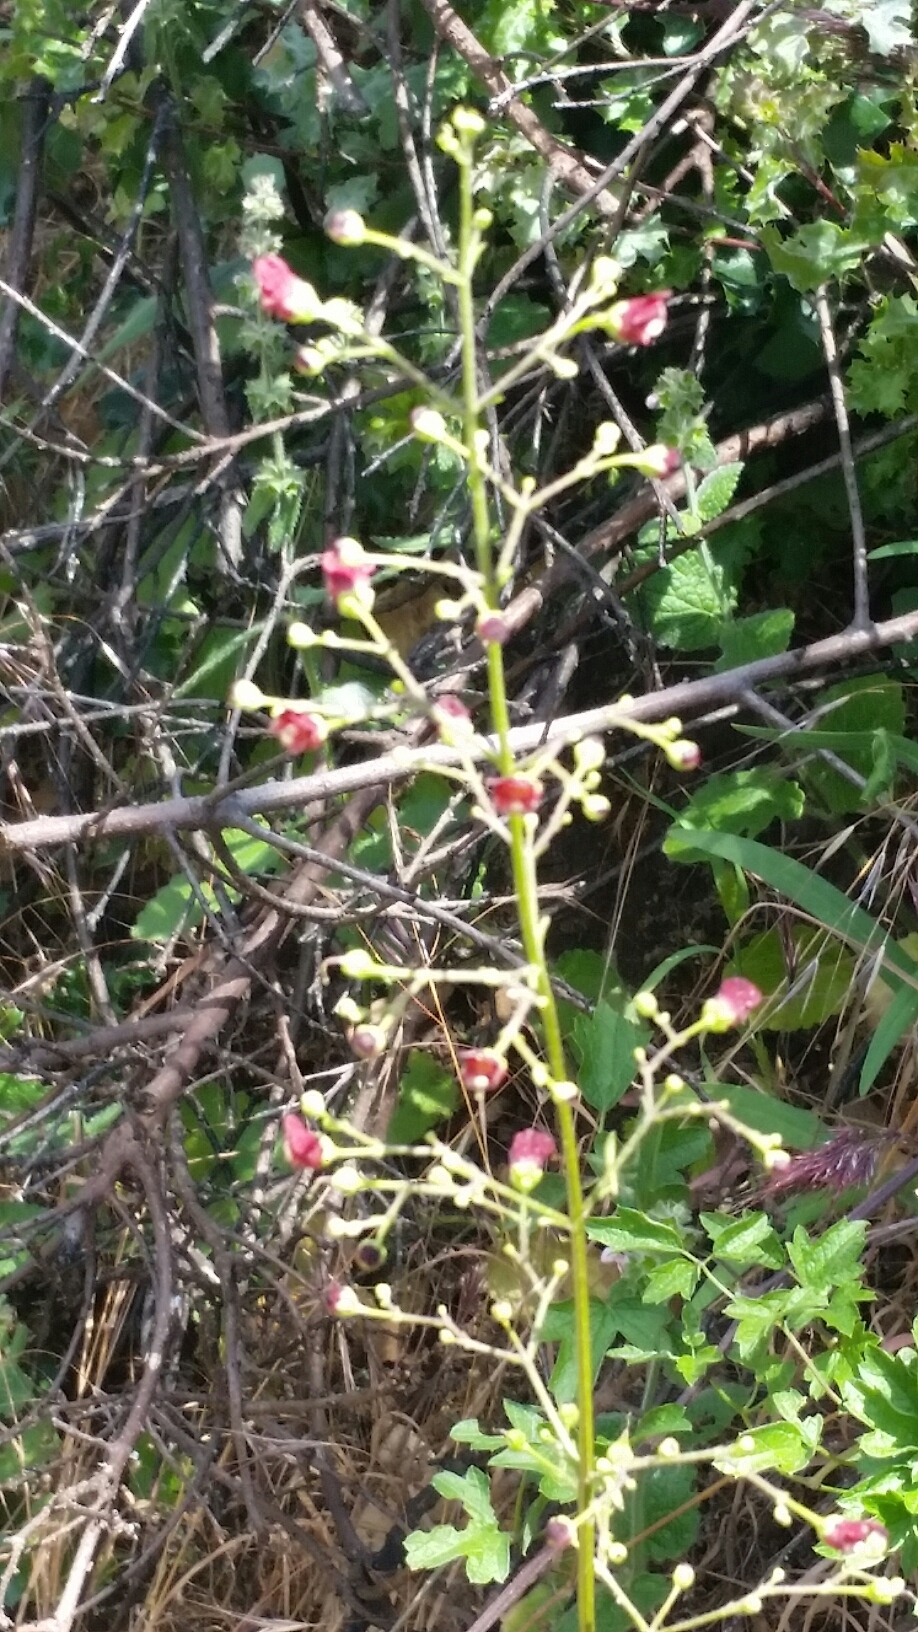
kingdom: Plantae
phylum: Tracheophyta
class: Magnoliopsida
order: Lamiales
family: Scrophulariaceae
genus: Scrophularia
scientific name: Scrophularia californica
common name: California figwort
